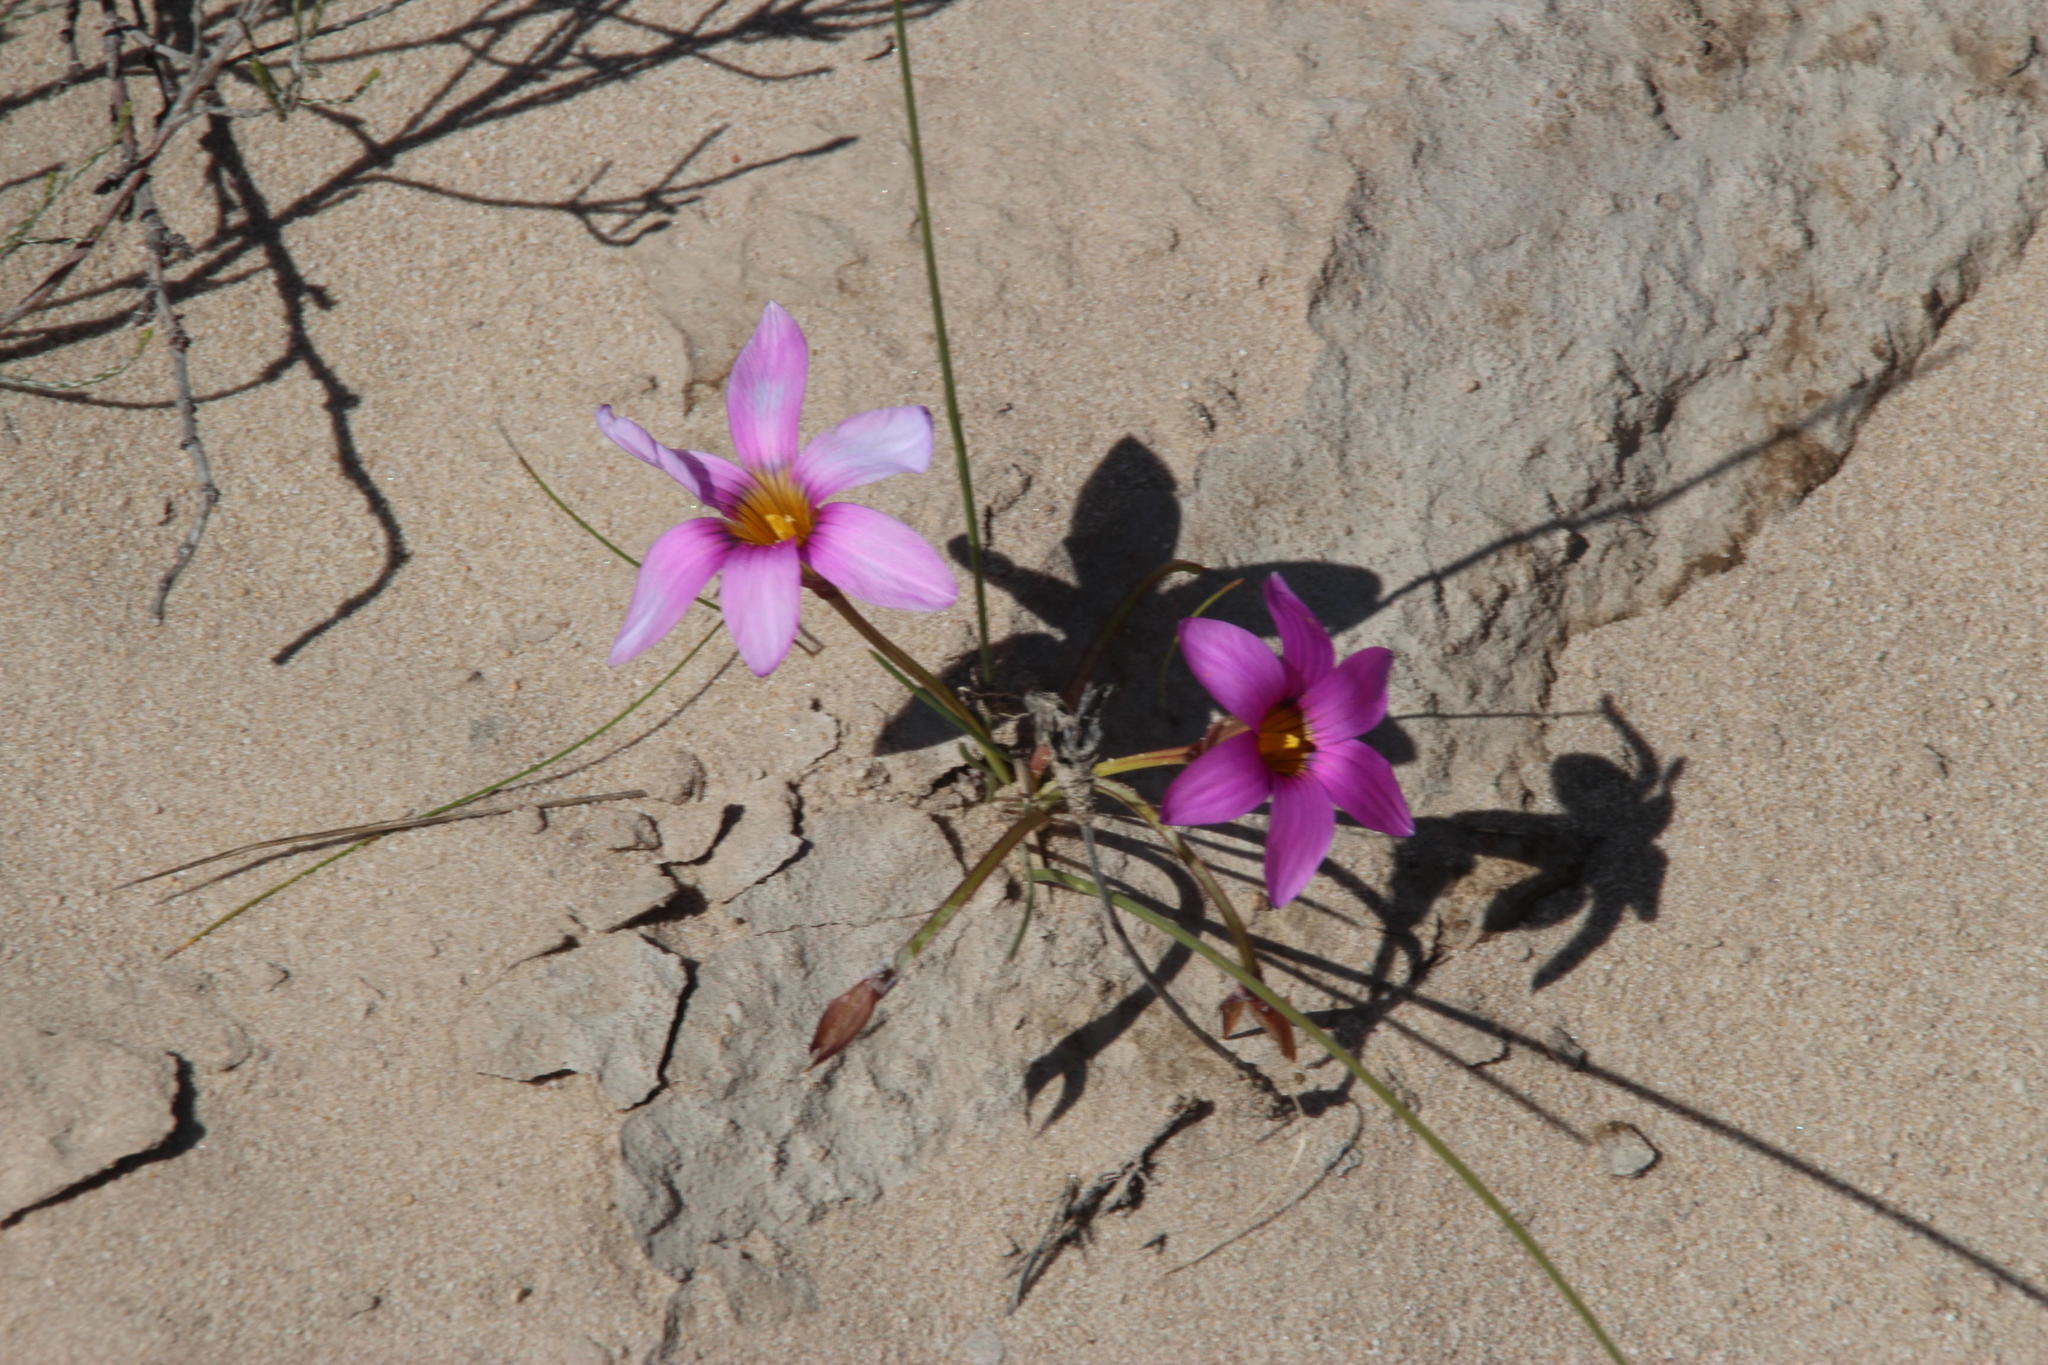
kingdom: Plantae
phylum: Tracheophyta
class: Liliopsida
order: Asparagales
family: Iridaceae
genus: Romulea
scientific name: Romulea rosea
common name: Oniongrass
